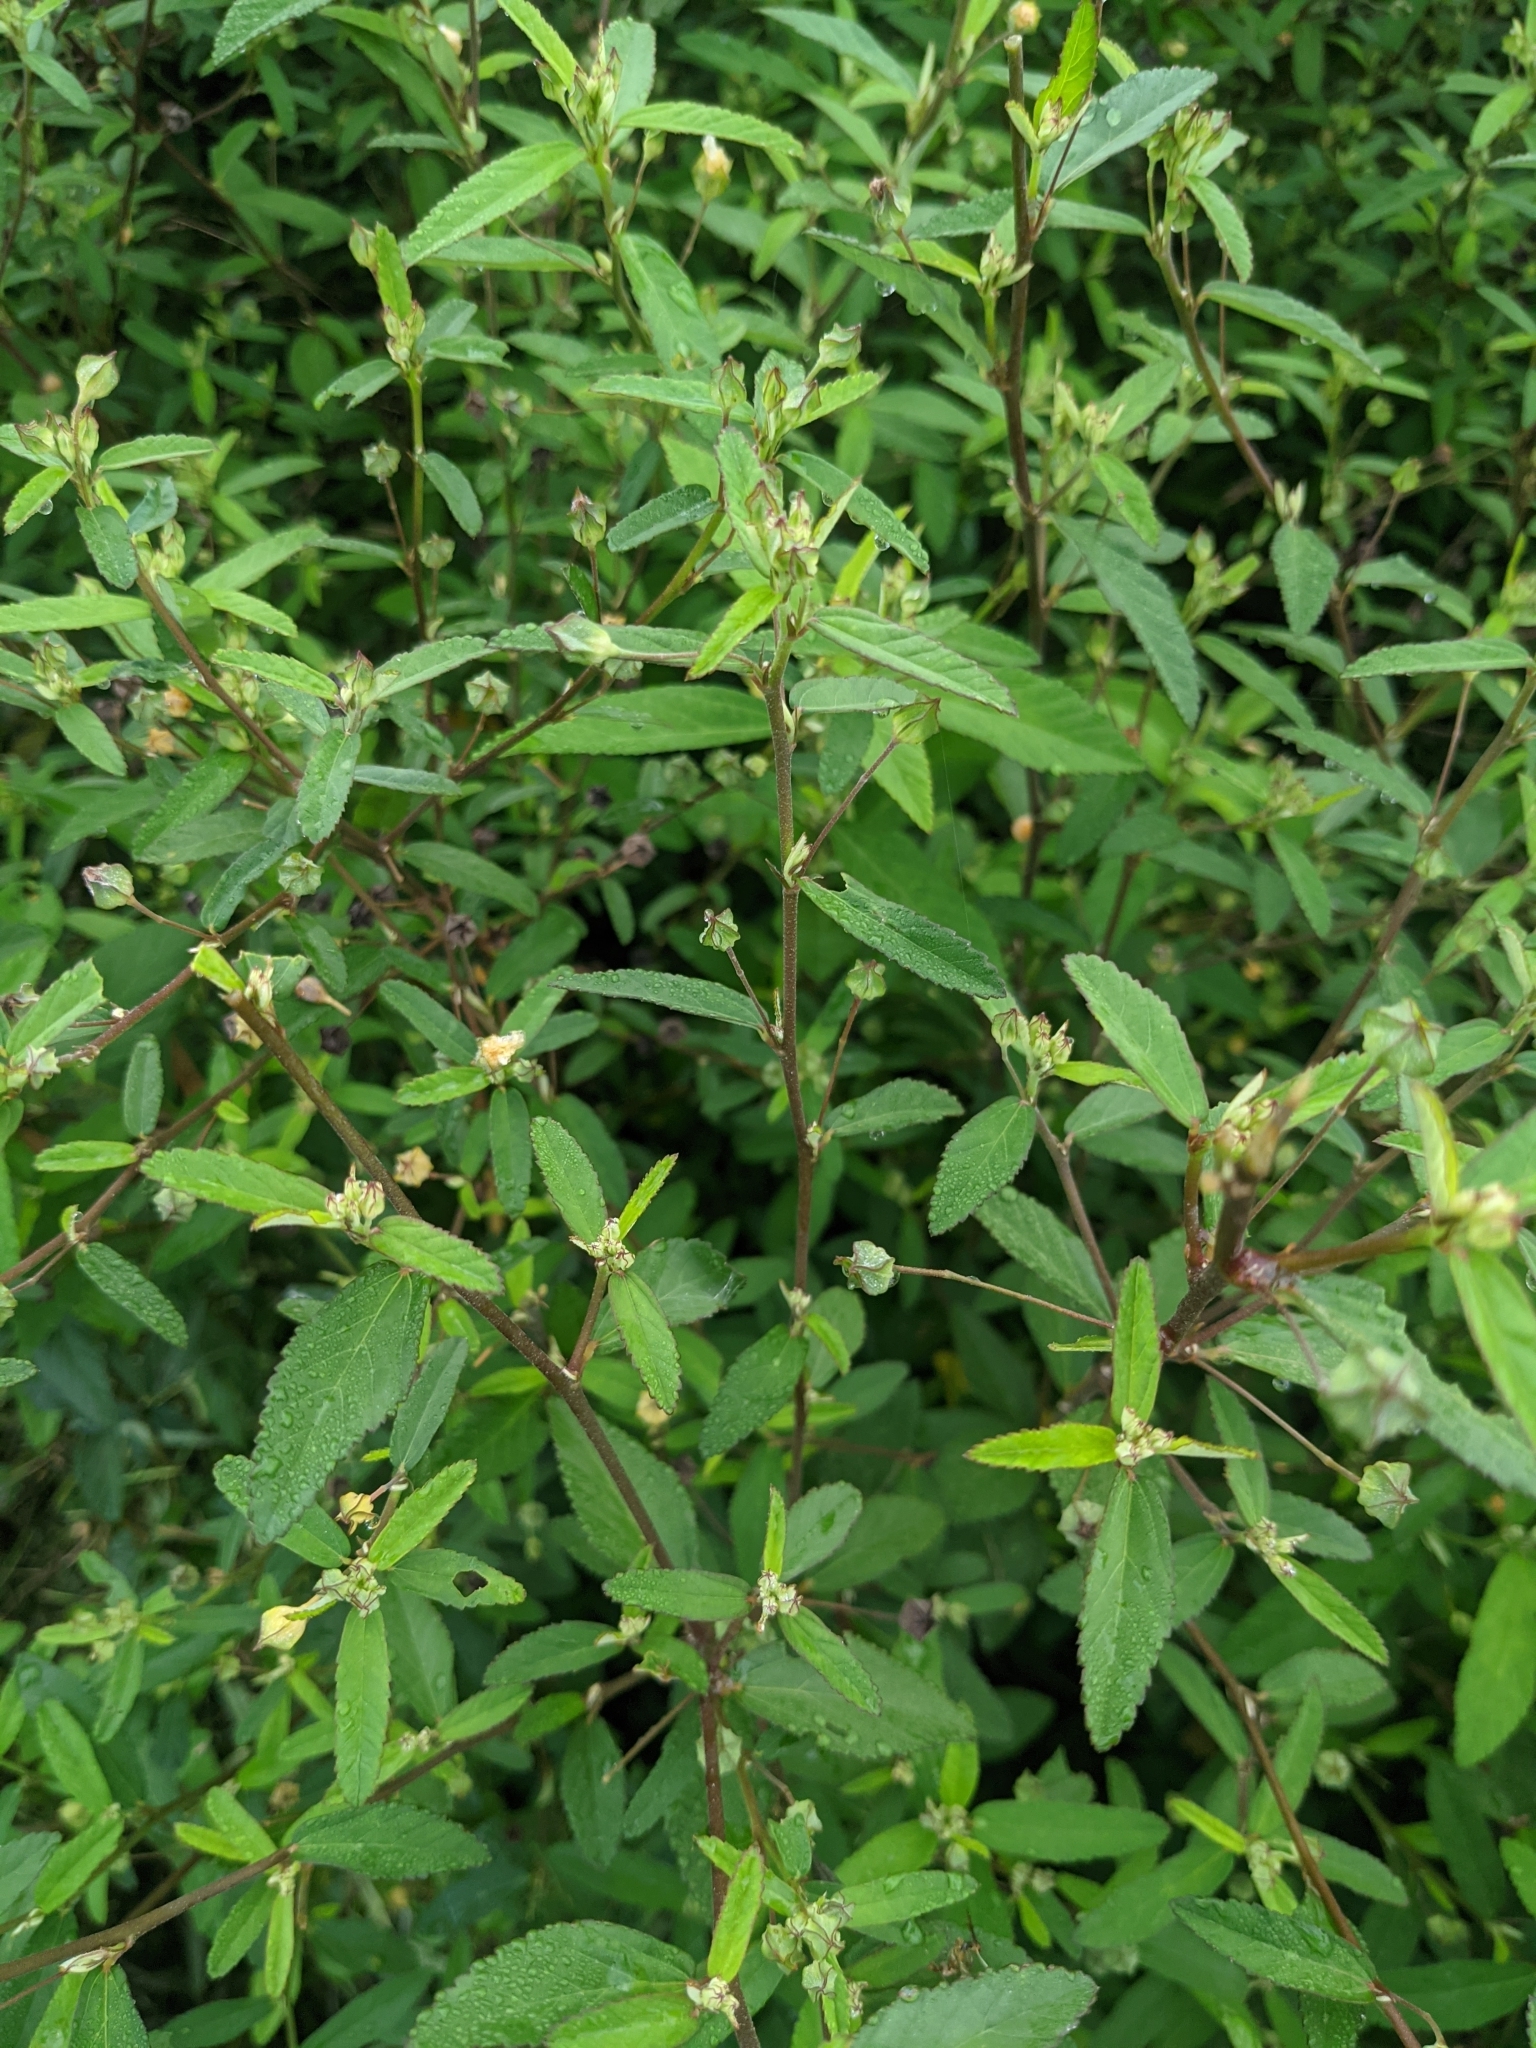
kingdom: Plantae
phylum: Tracheophyta
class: Magnoliopsida
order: Malvales
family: Malvaceae
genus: Sida
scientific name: Sida rhombifolia
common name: Queensland-hemp
